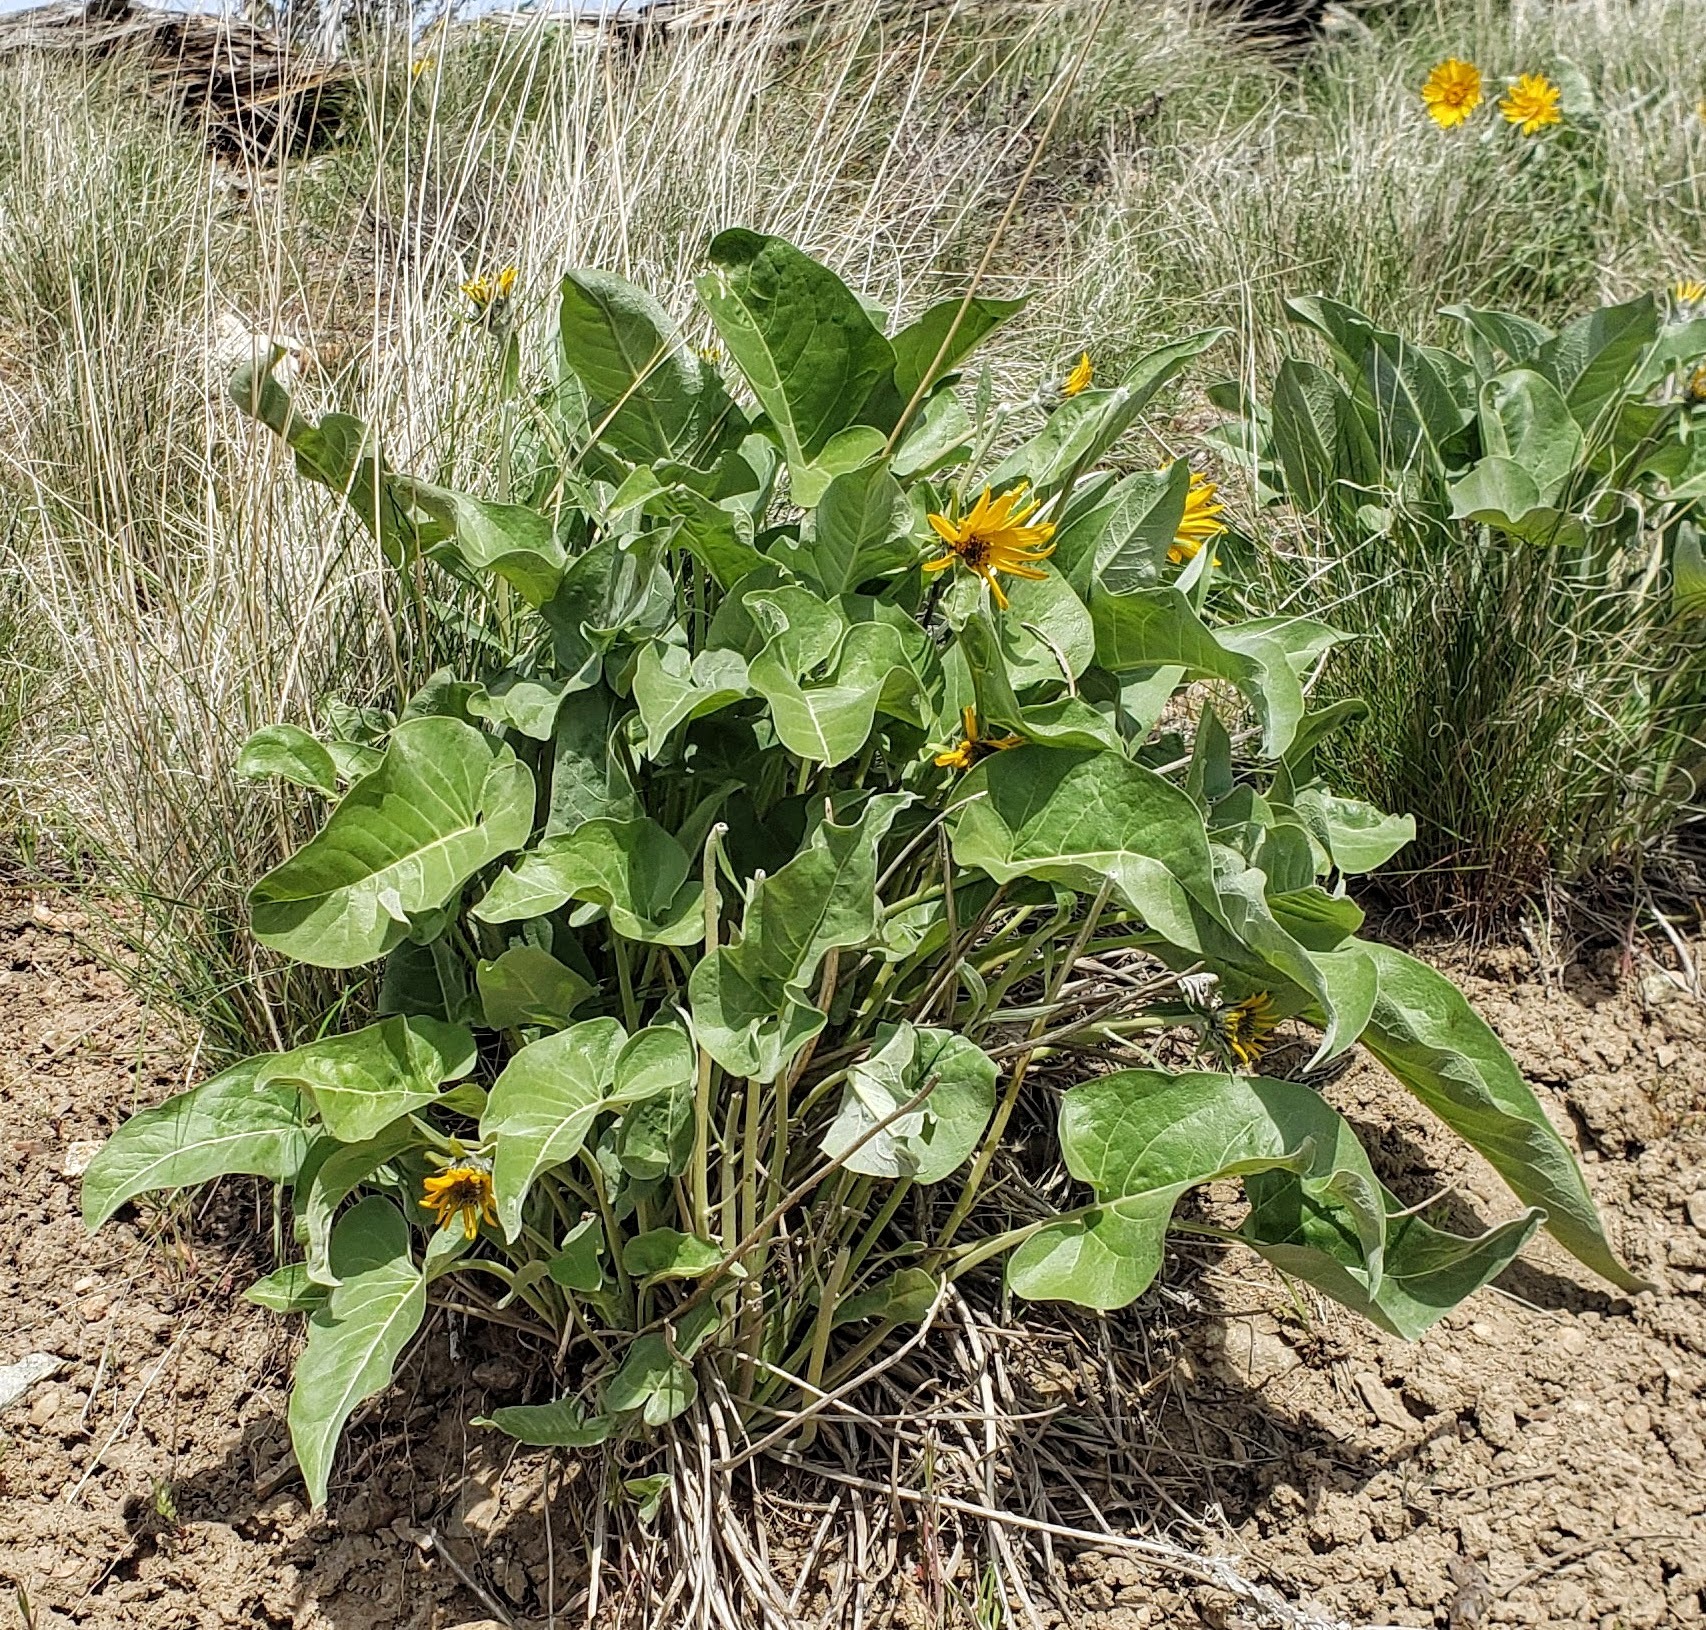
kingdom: Plantae
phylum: Tracheophyta
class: Magnoliopsida
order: Asterales
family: Asteraceae
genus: Wyethia
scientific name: Wyethia sagittata
